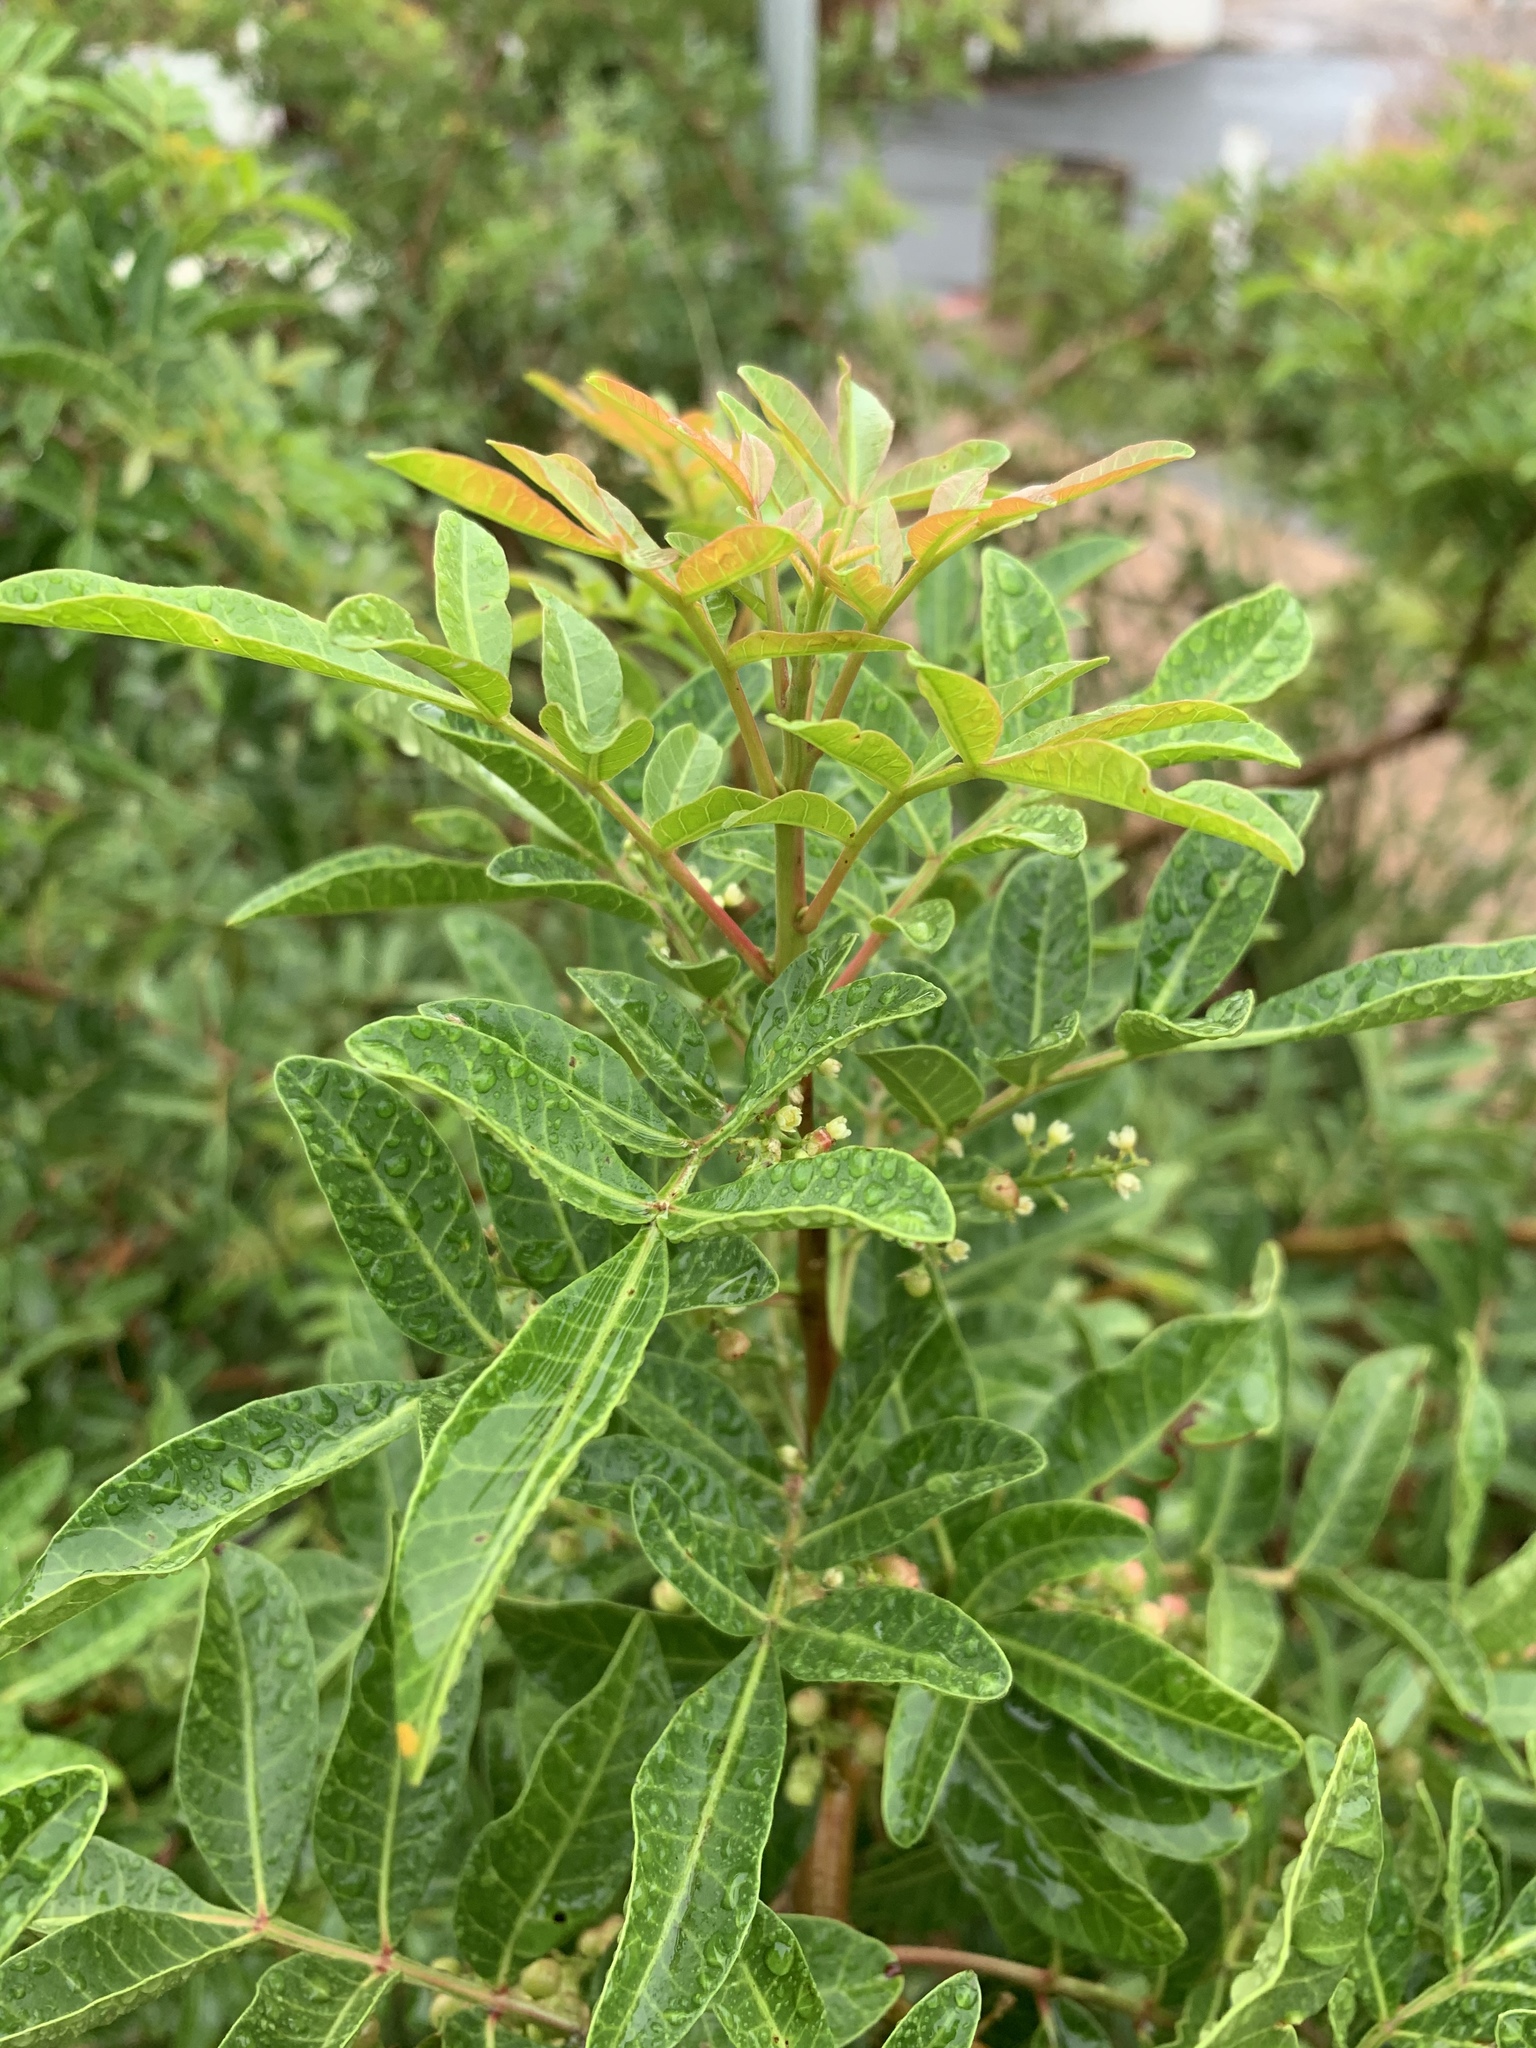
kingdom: Plantae
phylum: Tracheophyta
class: Magnoliopsida
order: Sapindales
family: Anacardiaceae
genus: Schinus
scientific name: Schinus terebinthifolia
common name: Brazilian peppertree
